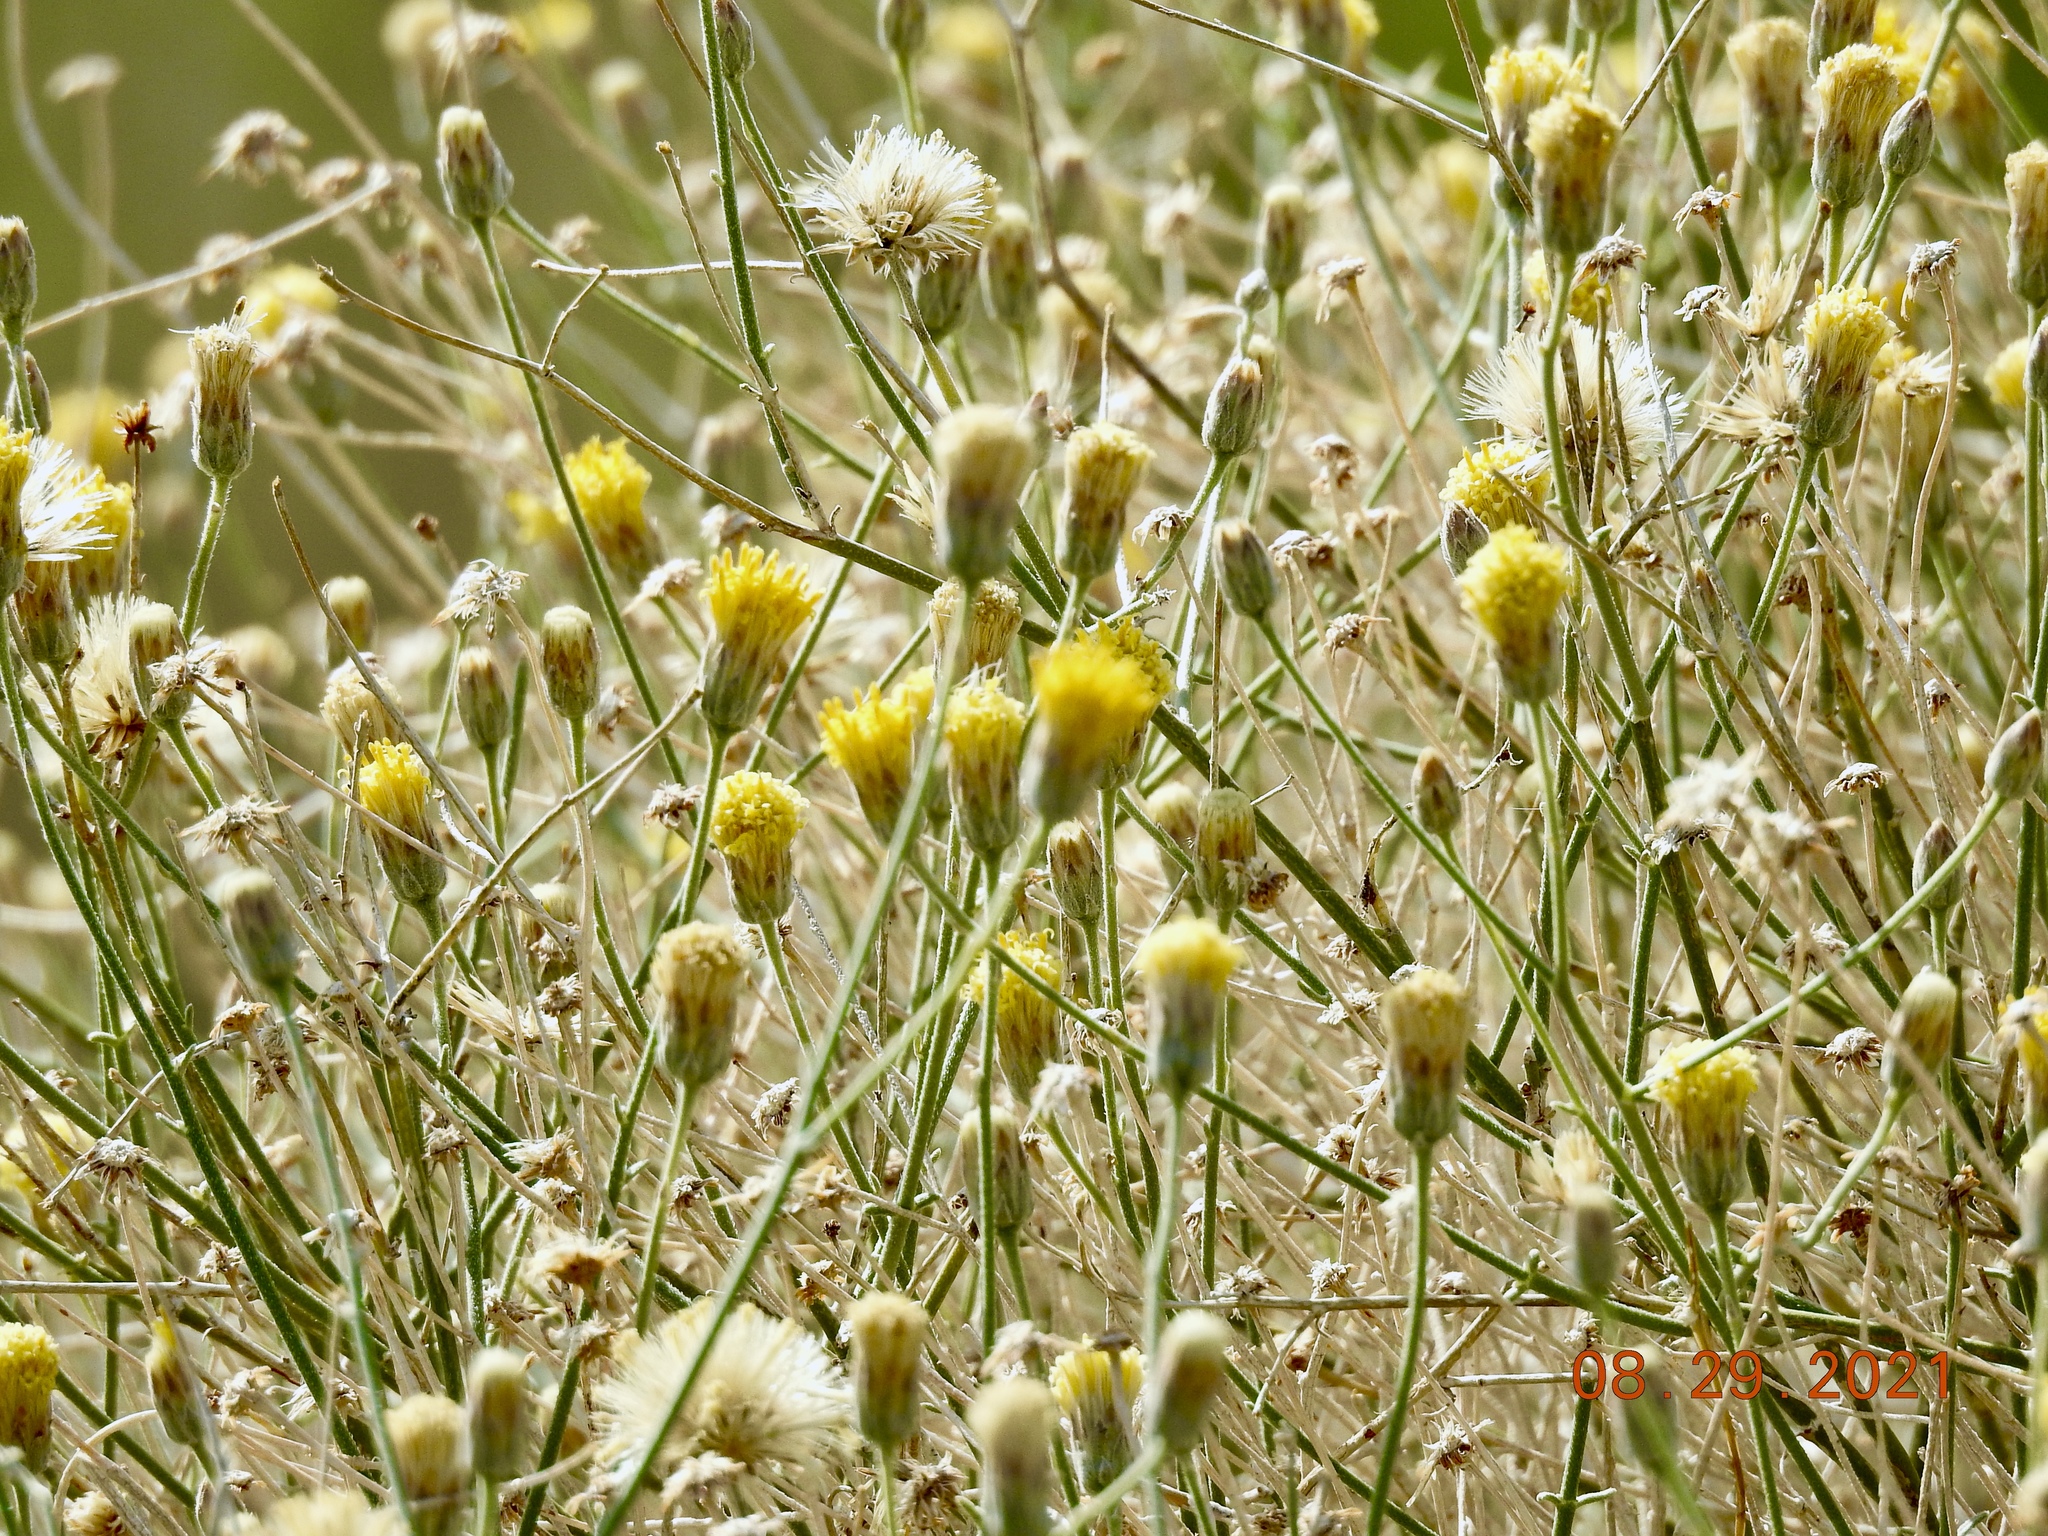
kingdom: Plantae
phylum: Tracheophyta
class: Magnoliopsida
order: Asterales
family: Asteraceae
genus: Bebbia
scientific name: Bebbia juncea
